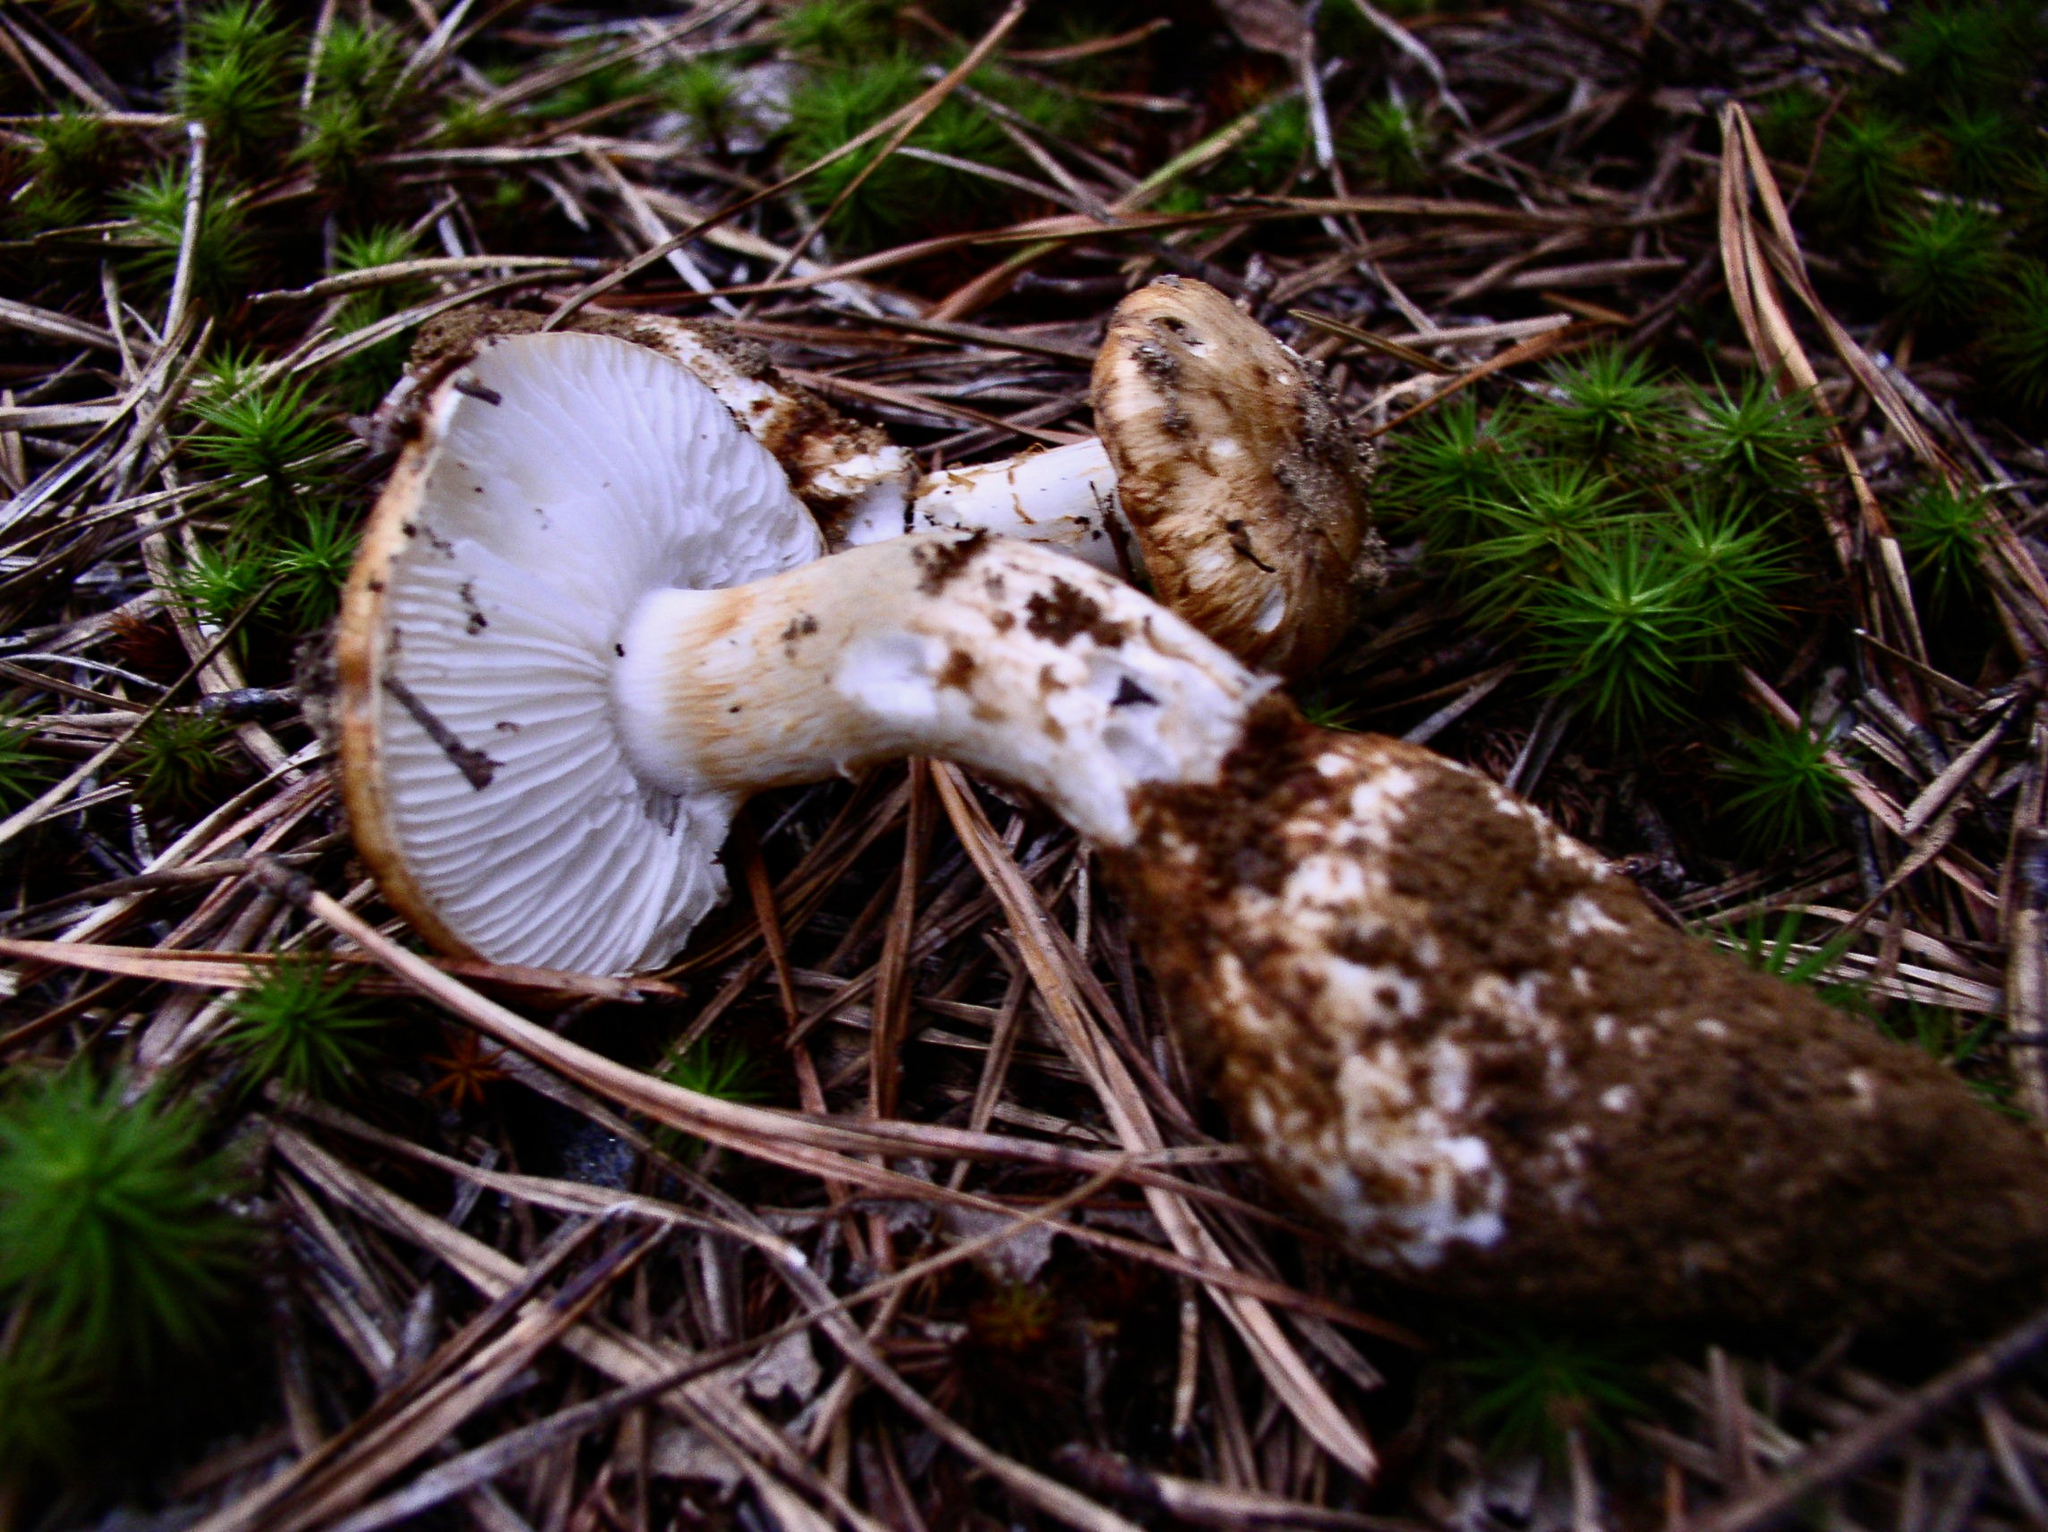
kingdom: Fungi
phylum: Basidiomycota
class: Agaricomycetes
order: Agaricales
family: Tricholomataceae
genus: Squamanita
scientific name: Squamanita umbonata
